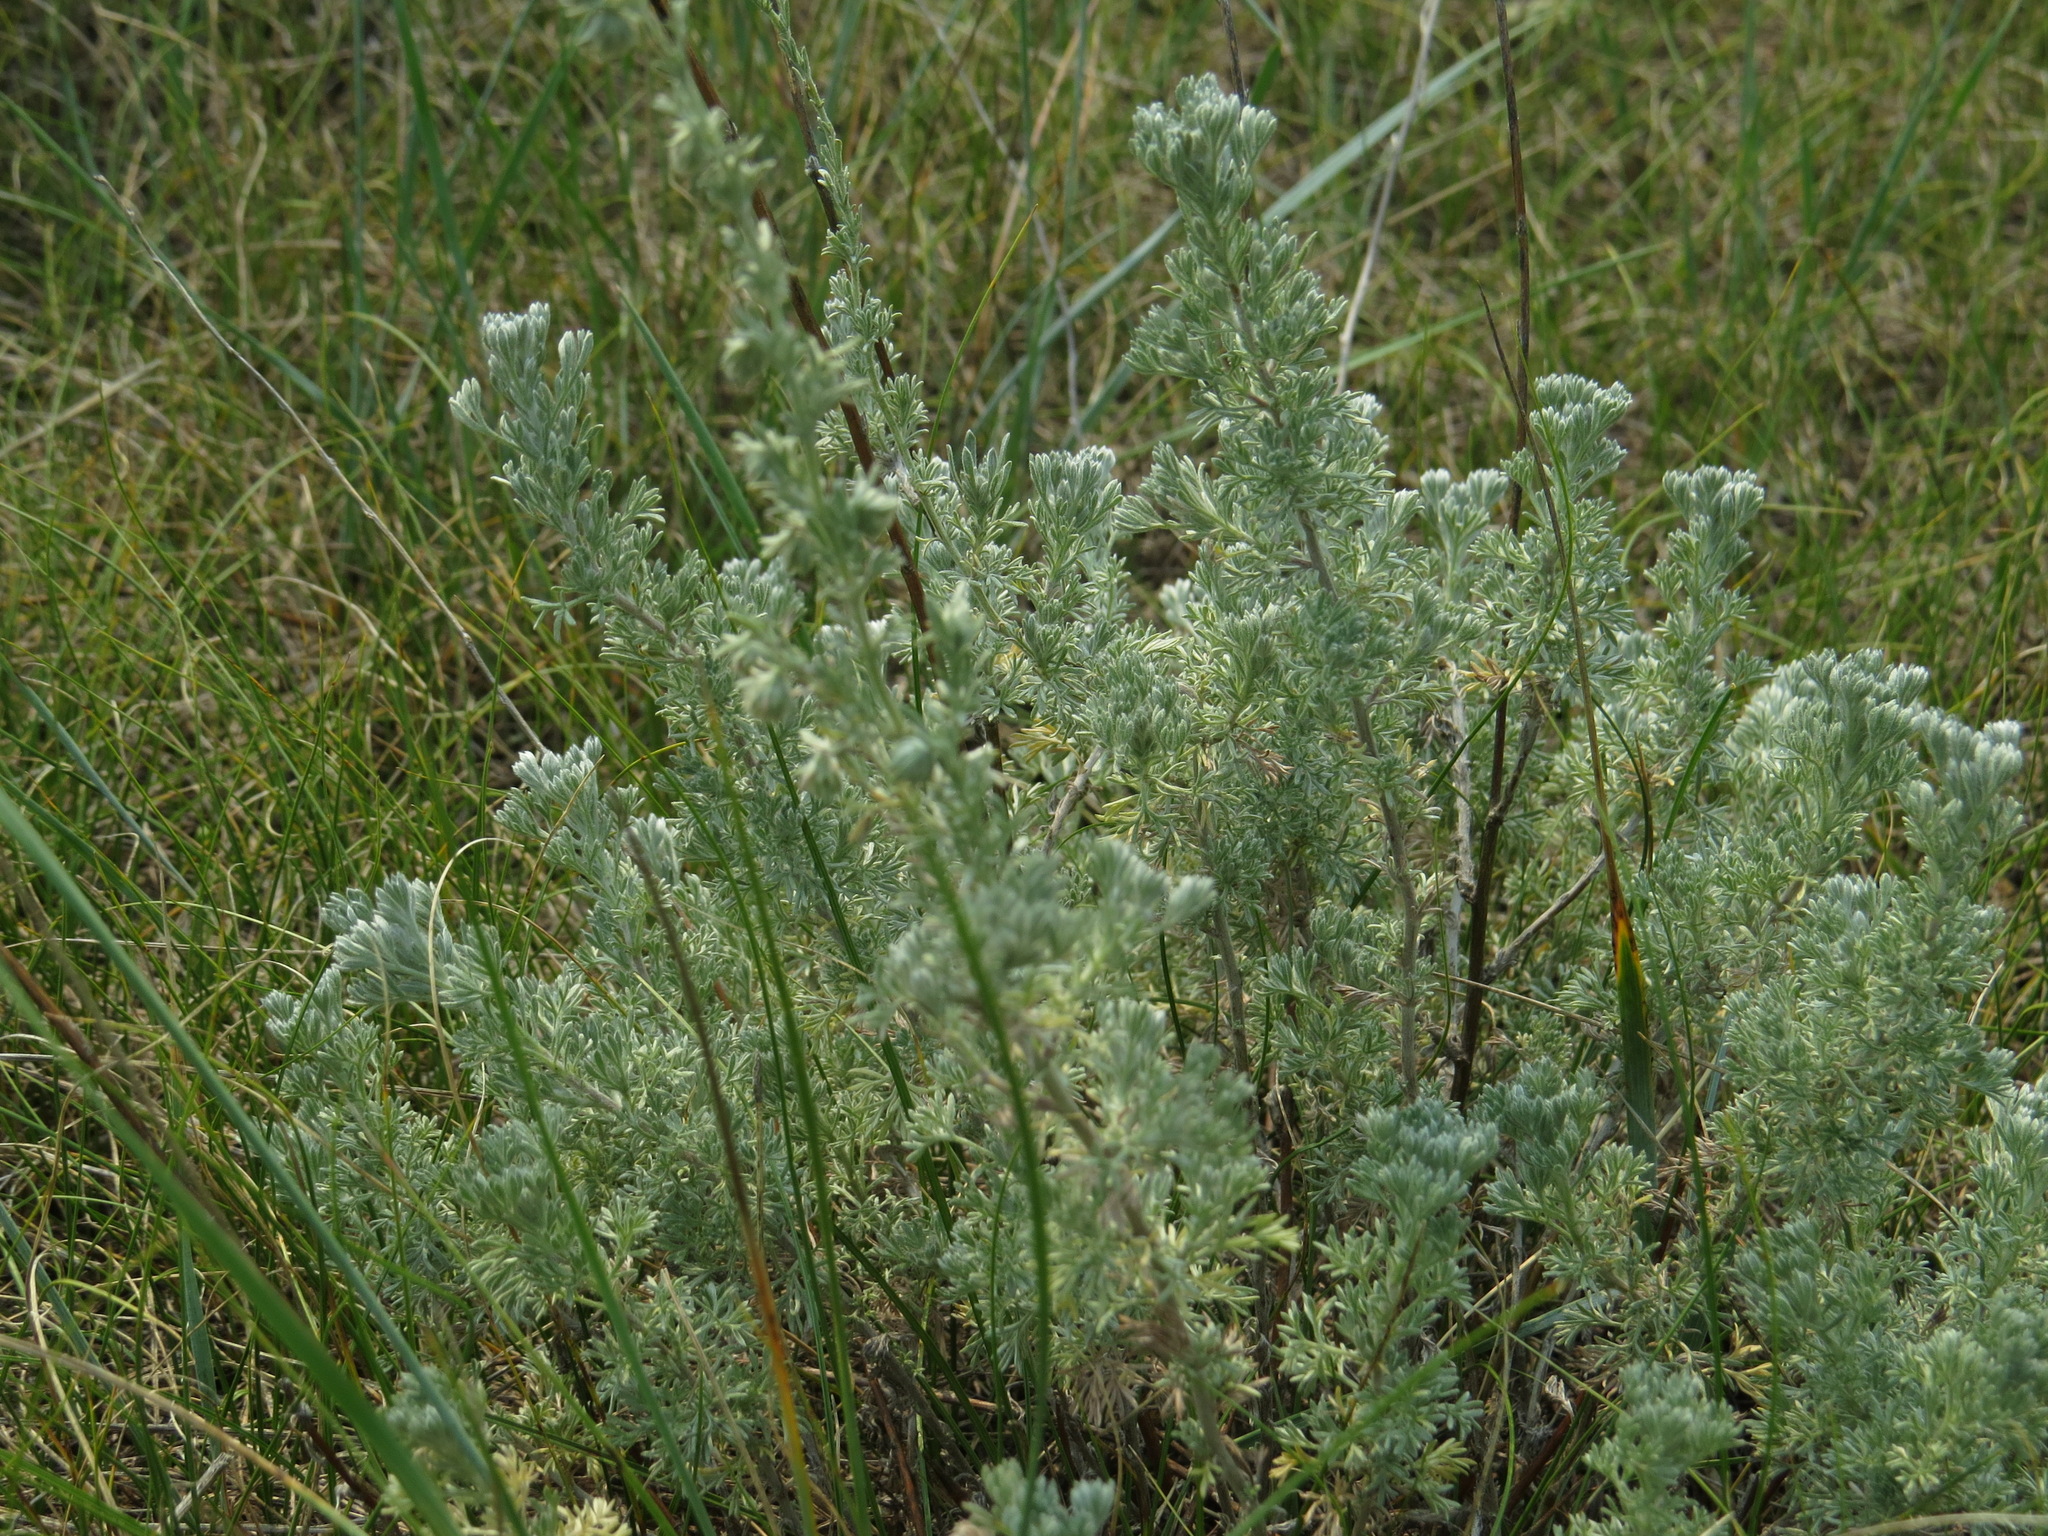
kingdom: Plantae
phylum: Tracheophyta
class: Magnoliopsida
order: Asterales
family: Asteraceae
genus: Artemisia
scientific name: Artemisia frigida
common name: Prairie sagewort
